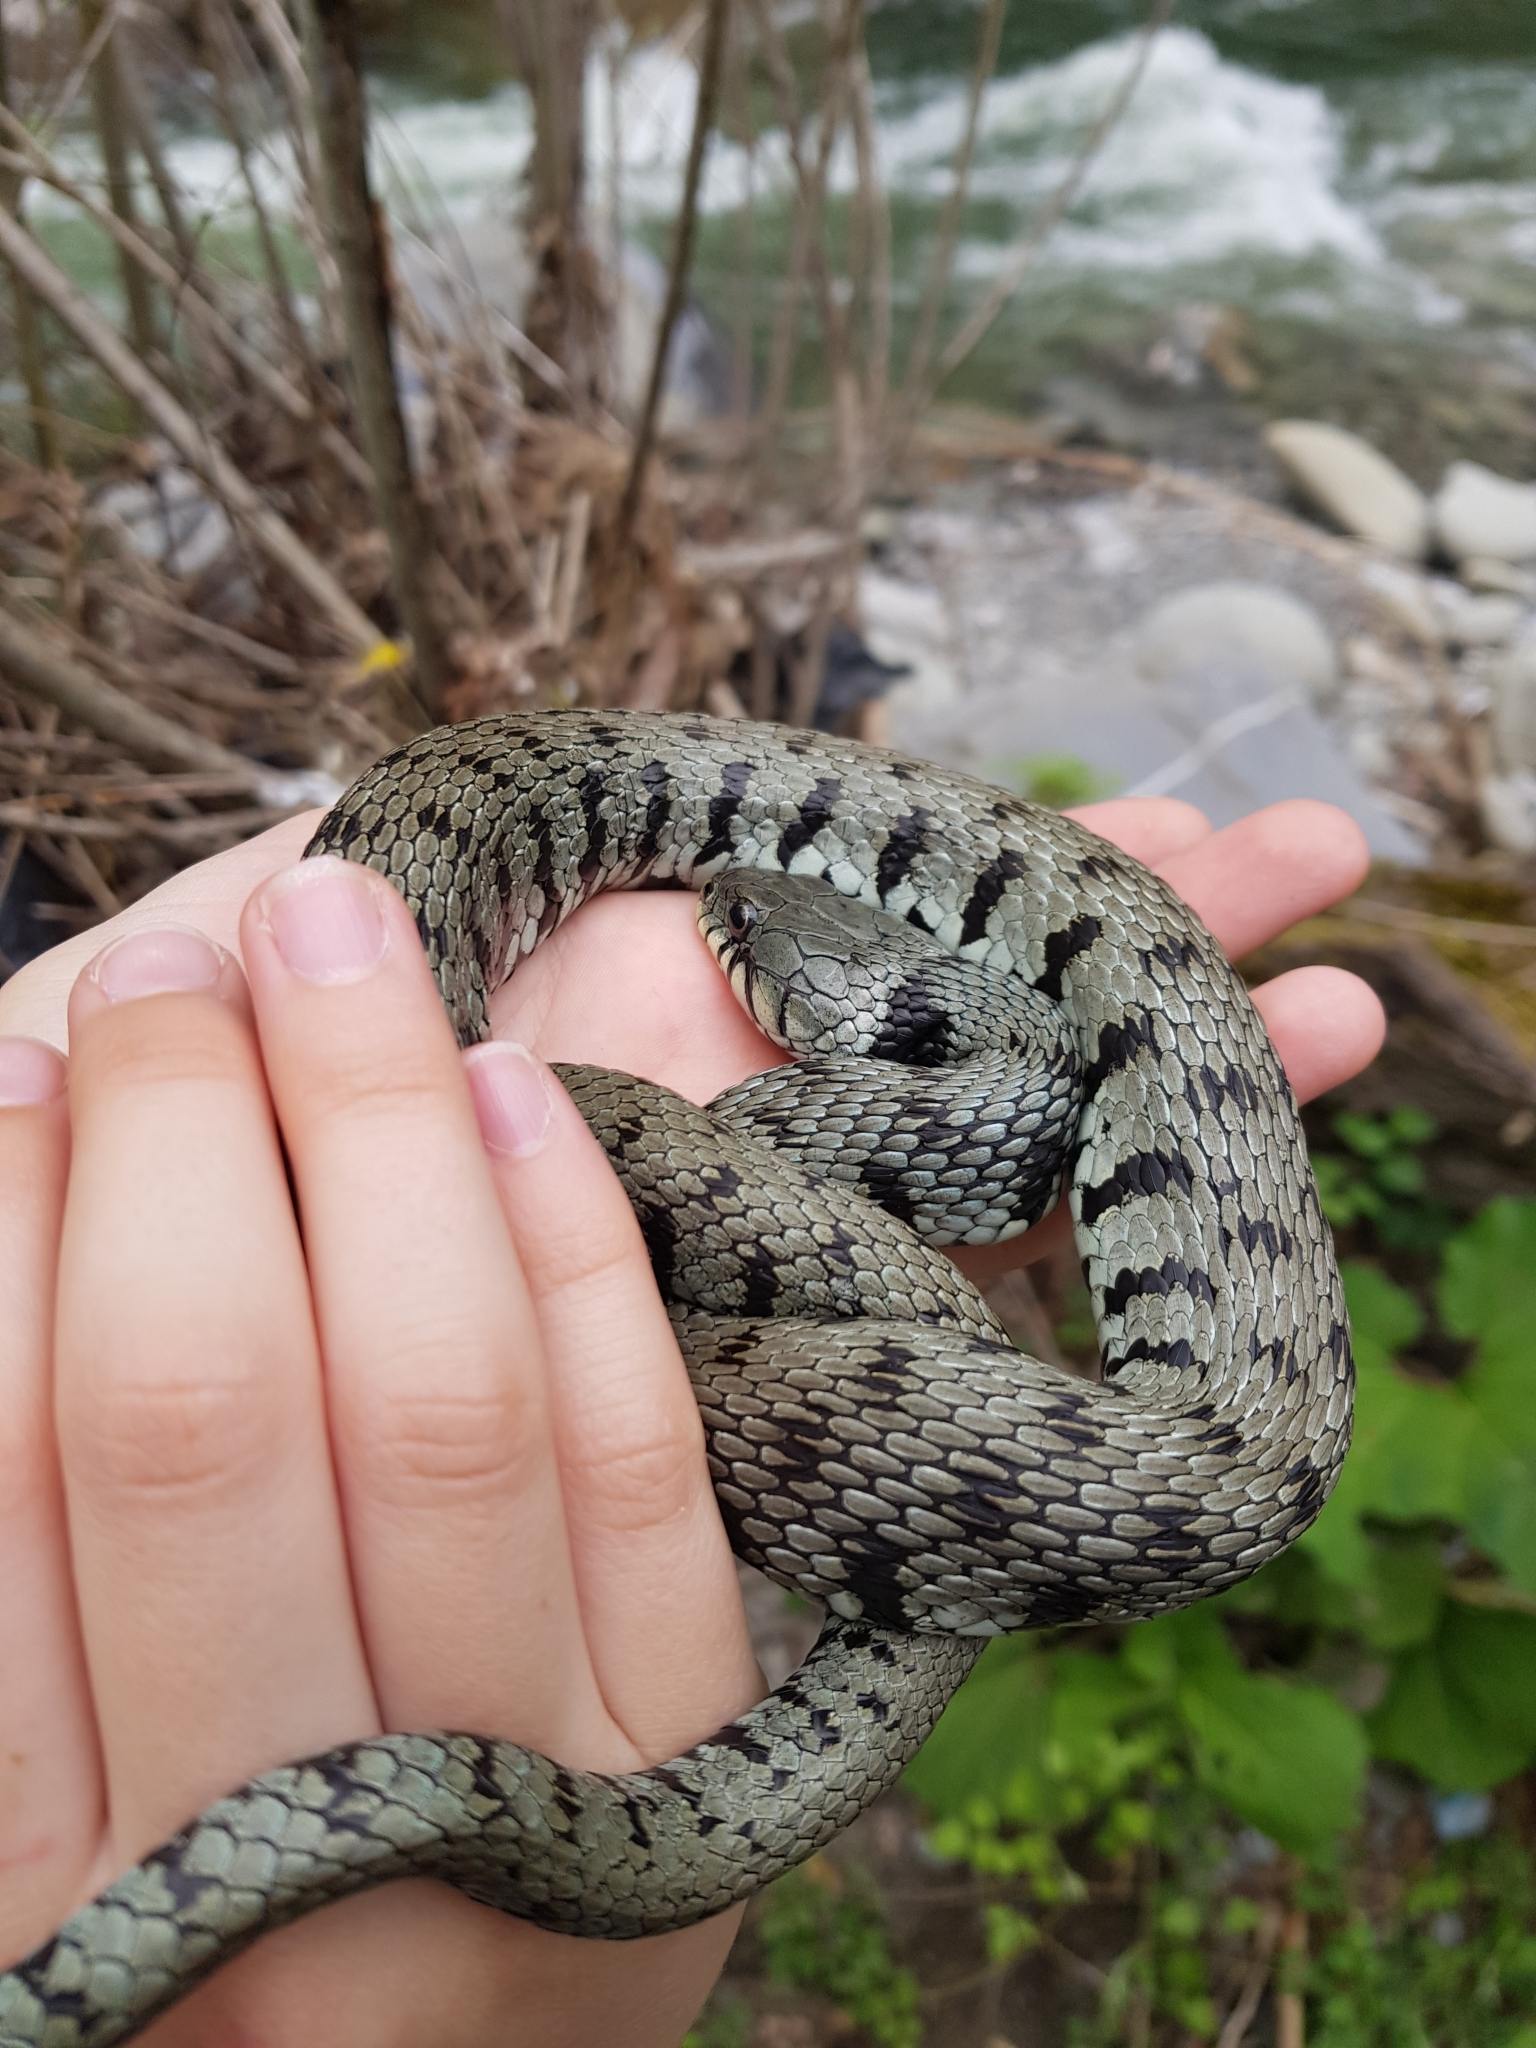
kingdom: Animalia
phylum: Chordata
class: Squamata
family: Colubridae
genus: Natrix
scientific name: Natrix helvetica
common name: Banded grass snake
